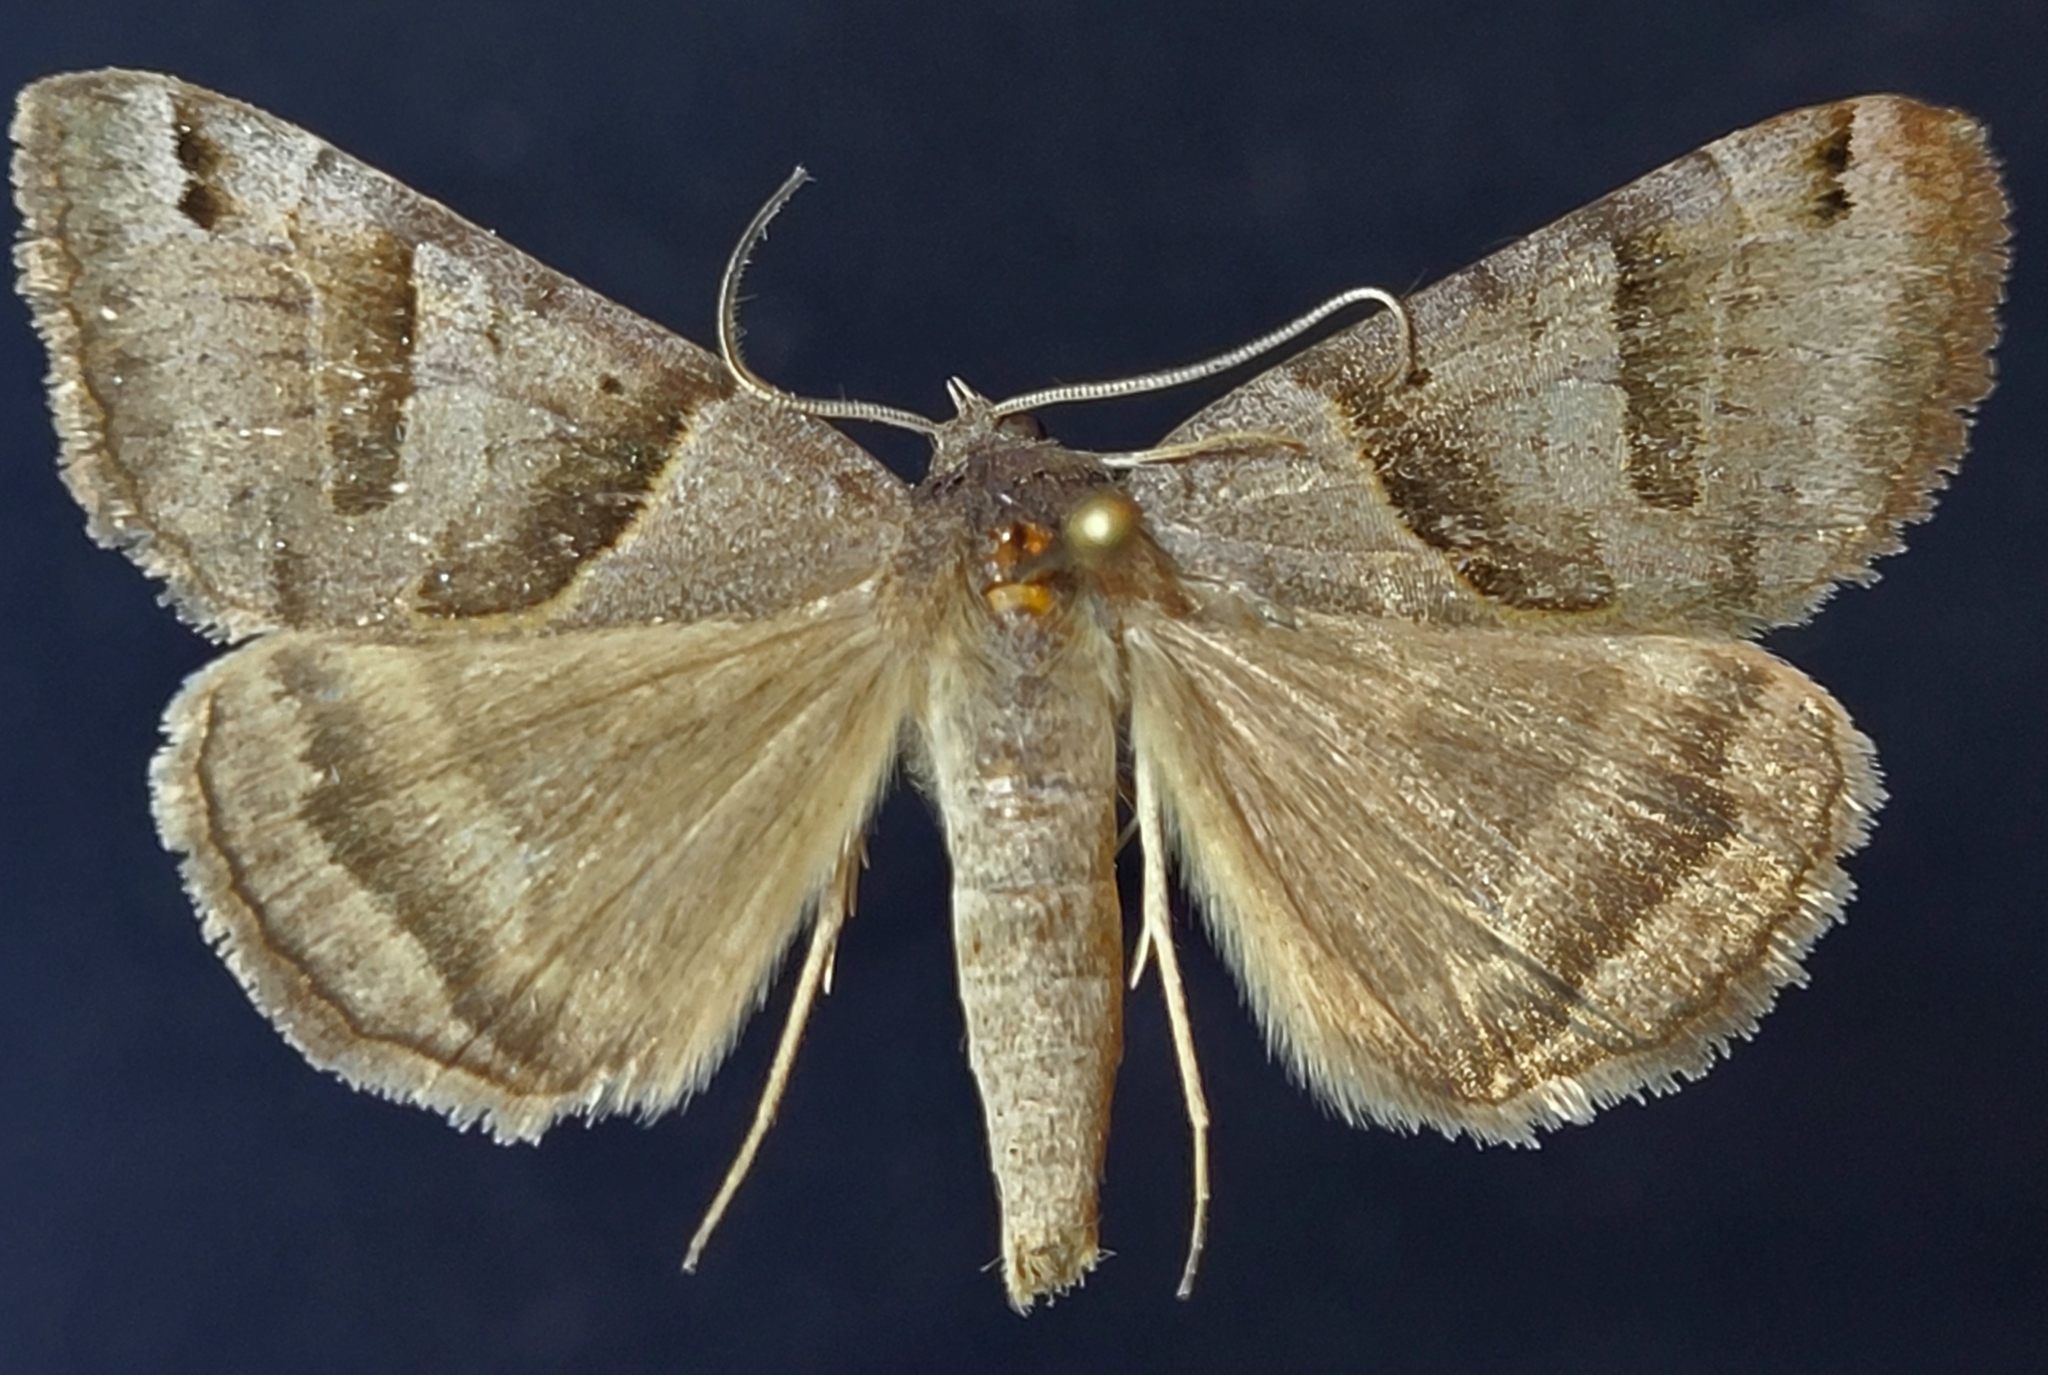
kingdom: Animalia
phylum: Arthropoda
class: Insecta
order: Lepidoptera
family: Erebidae
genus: Caenurgina
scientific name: Caenurgina erechtea
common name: Forage looper moth
